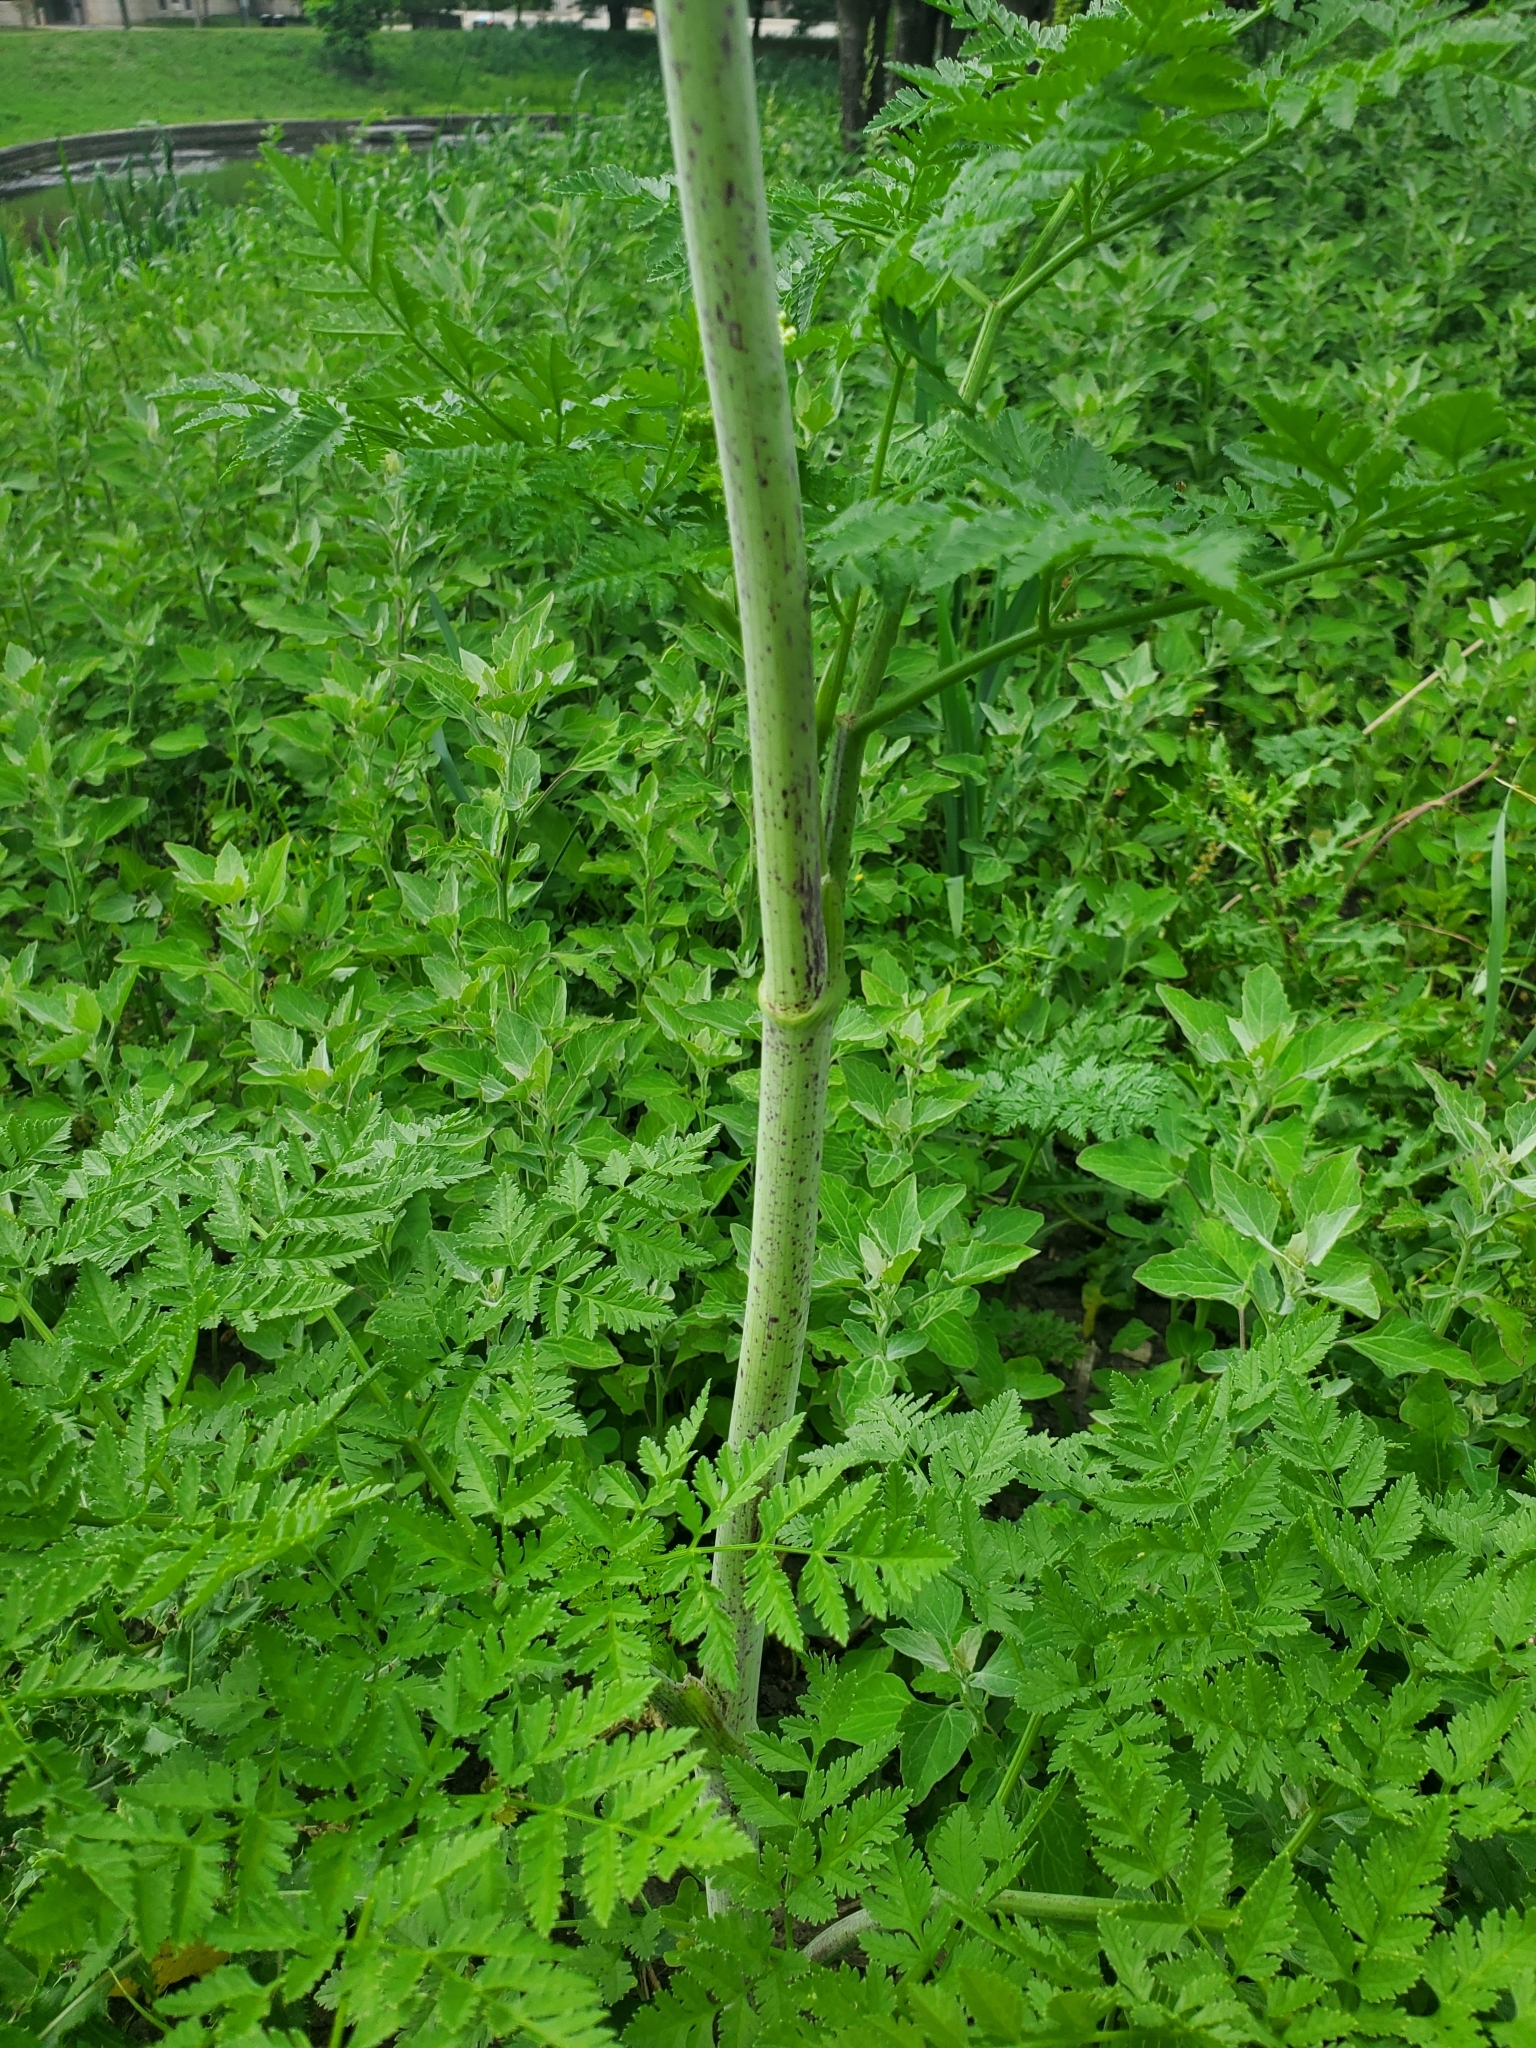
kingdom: Plantae
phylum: Tracheophyta
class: Magnoliopsida
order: Apiales
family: Apiaceae
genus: Conium
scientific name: Conium maculatum
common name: Hemlock
